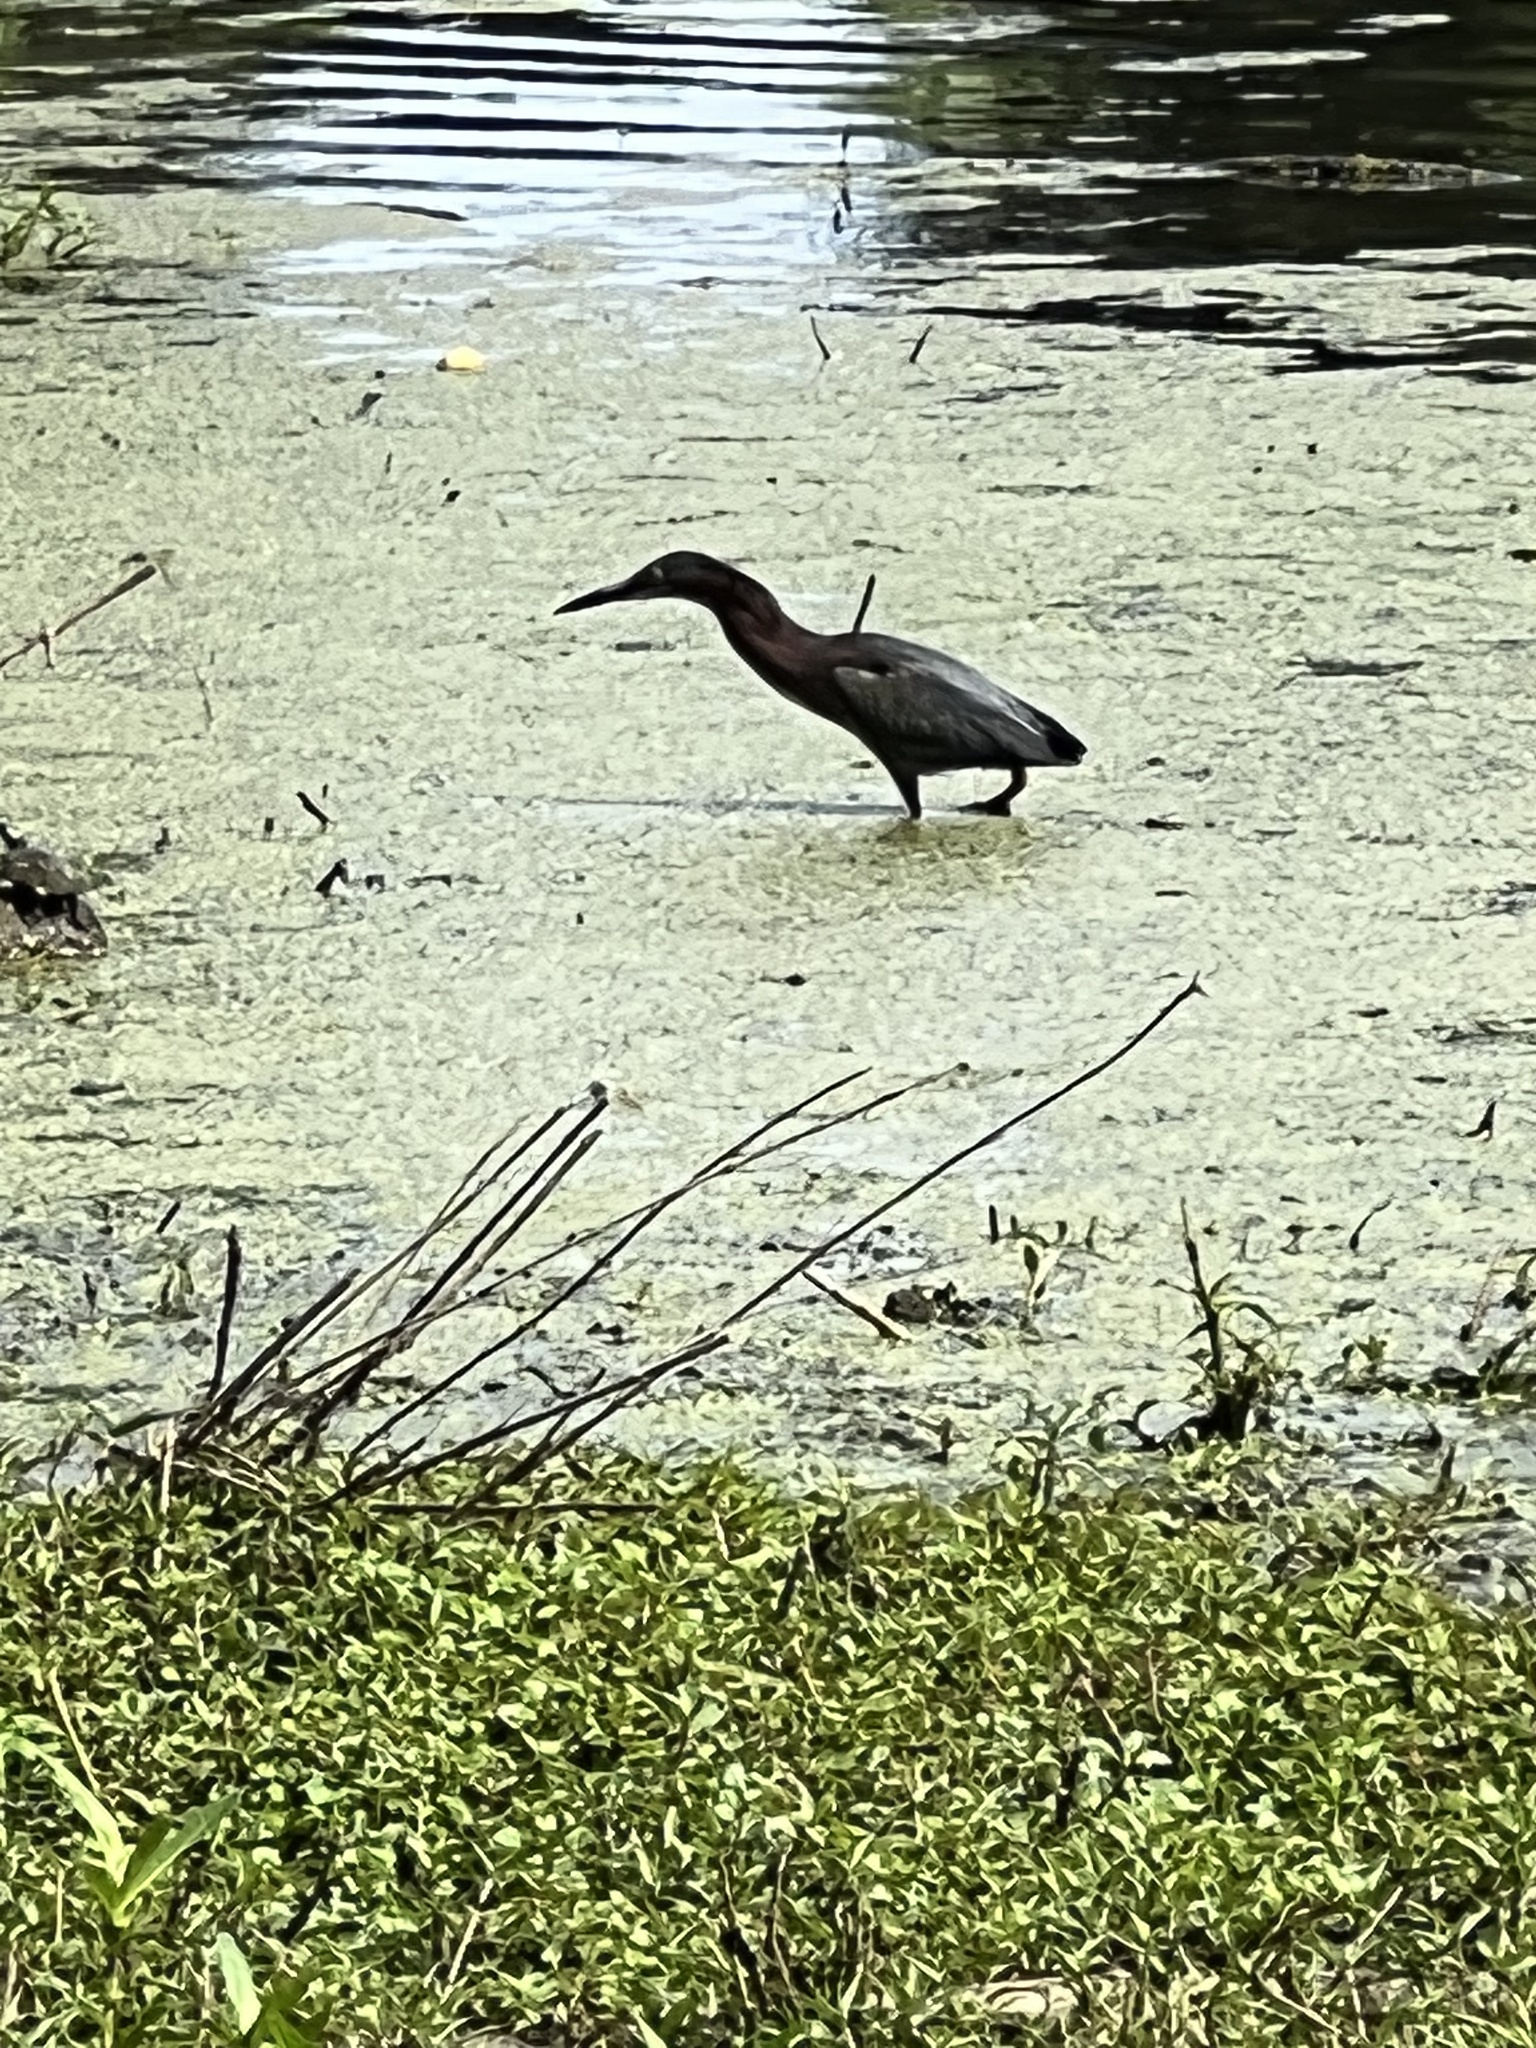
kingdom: Animalia
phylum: Chordata
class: Aves
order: Pelecaniformes
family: Ardeidae
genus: Butorides
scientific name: Butorides virescens
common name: Green heron
